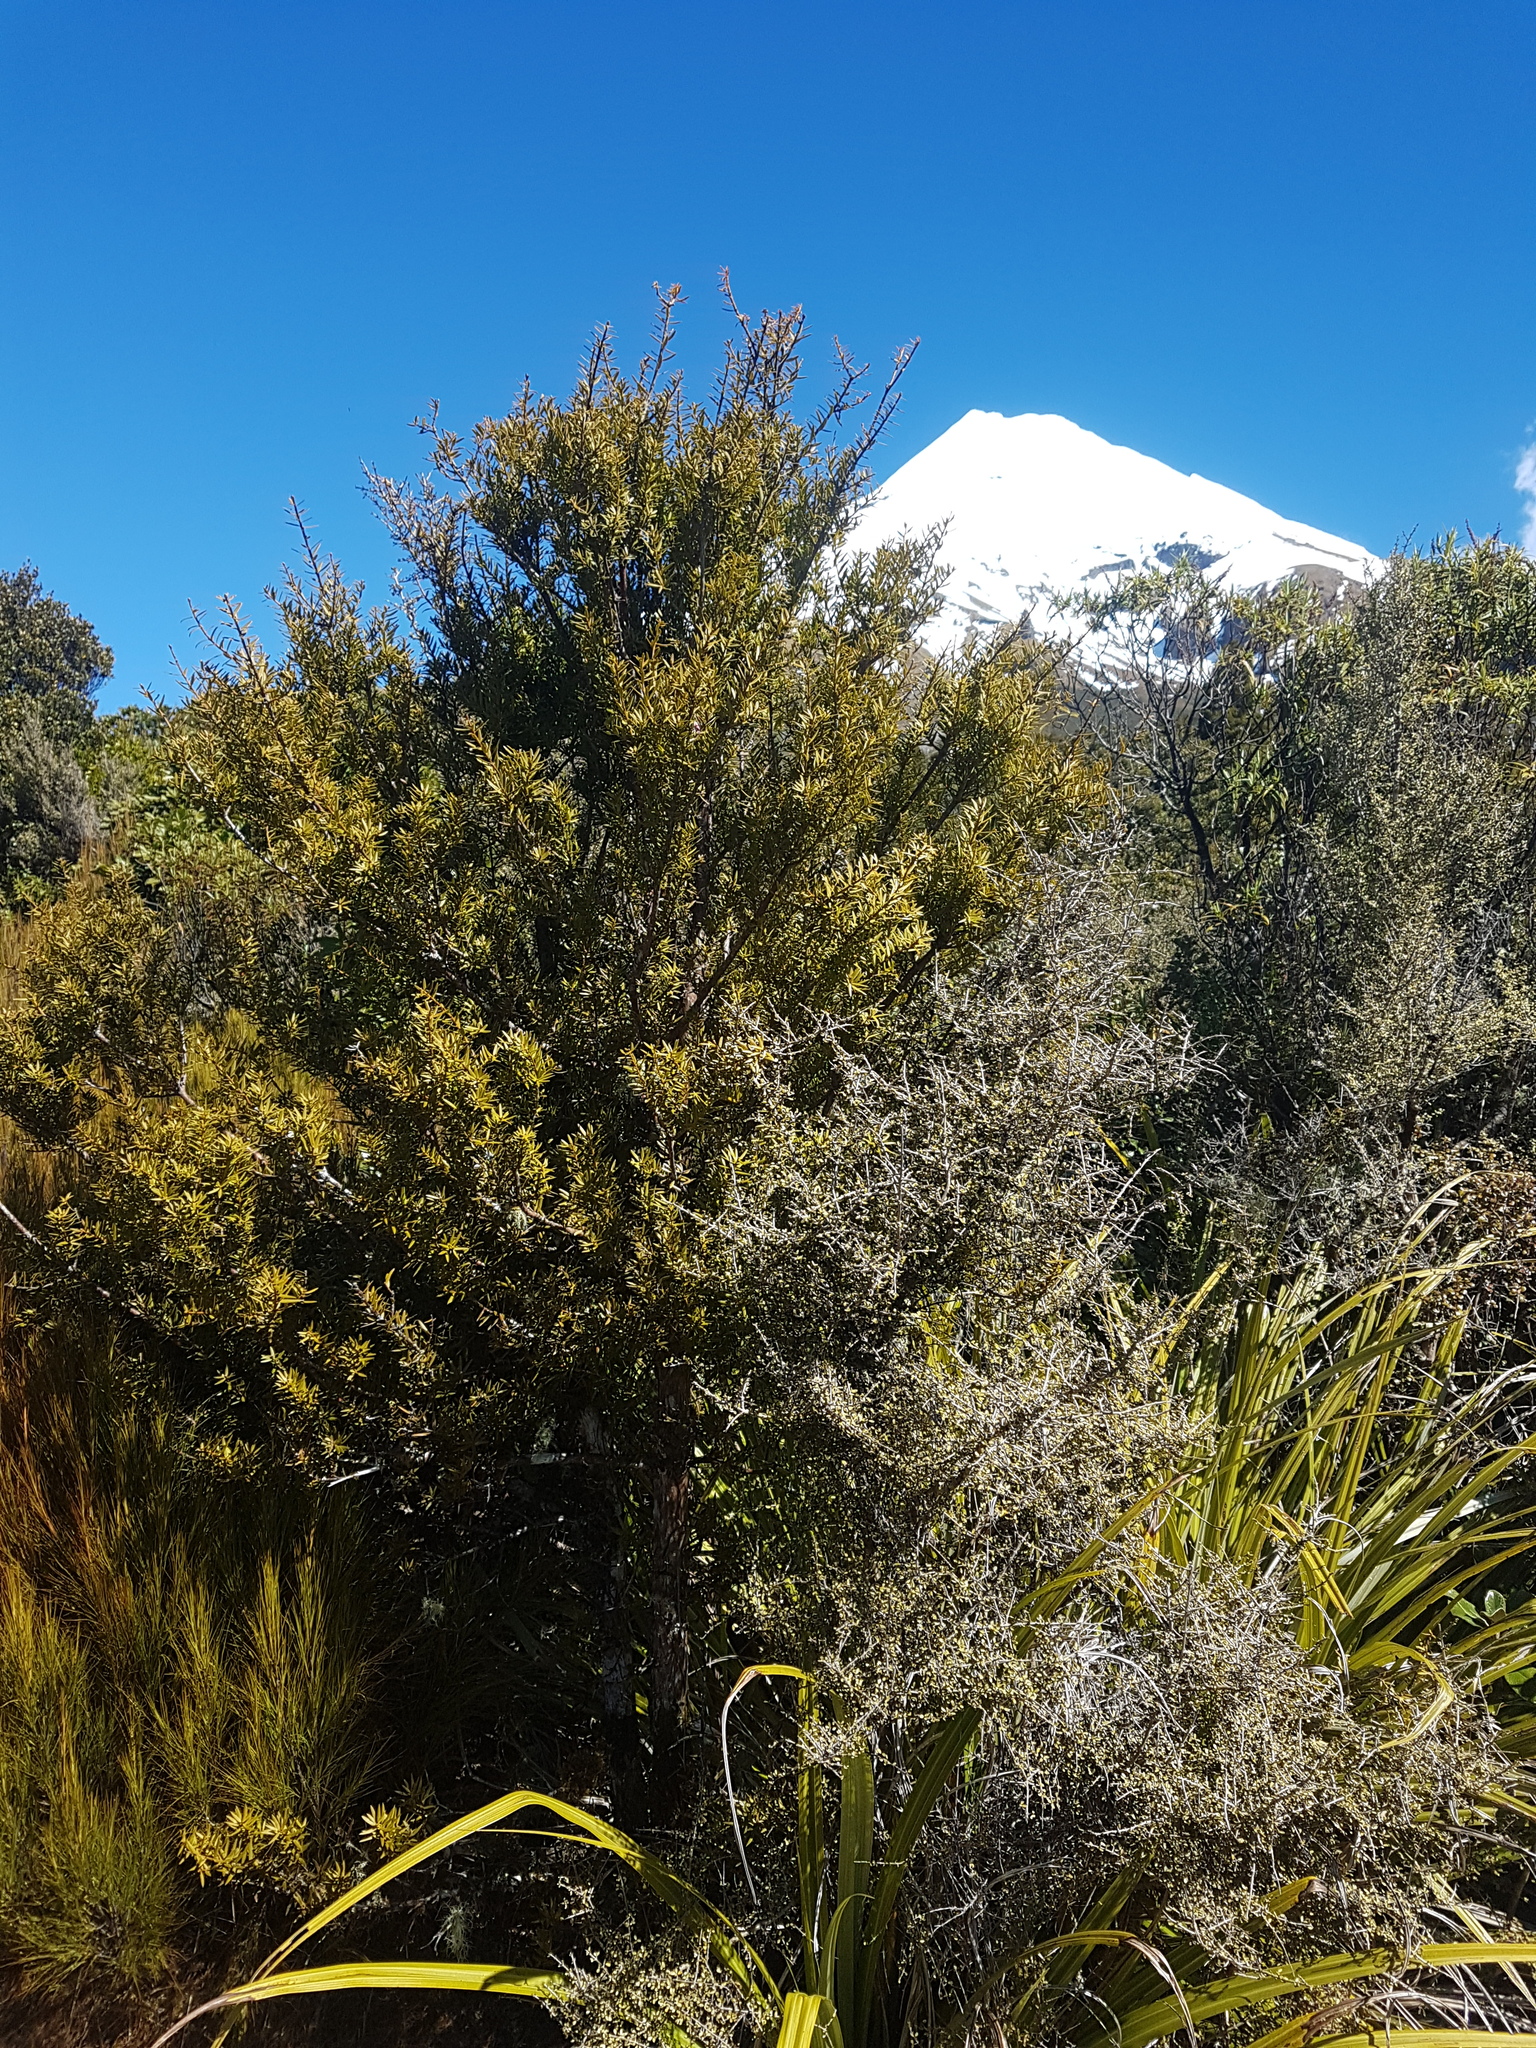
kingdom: Plantae
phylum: Tracheophyta
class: Pinopsida
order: Pinales
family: Podocarpaceae
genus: Podocarpus
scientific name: Podocarpus laetus
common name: Hall's totara
